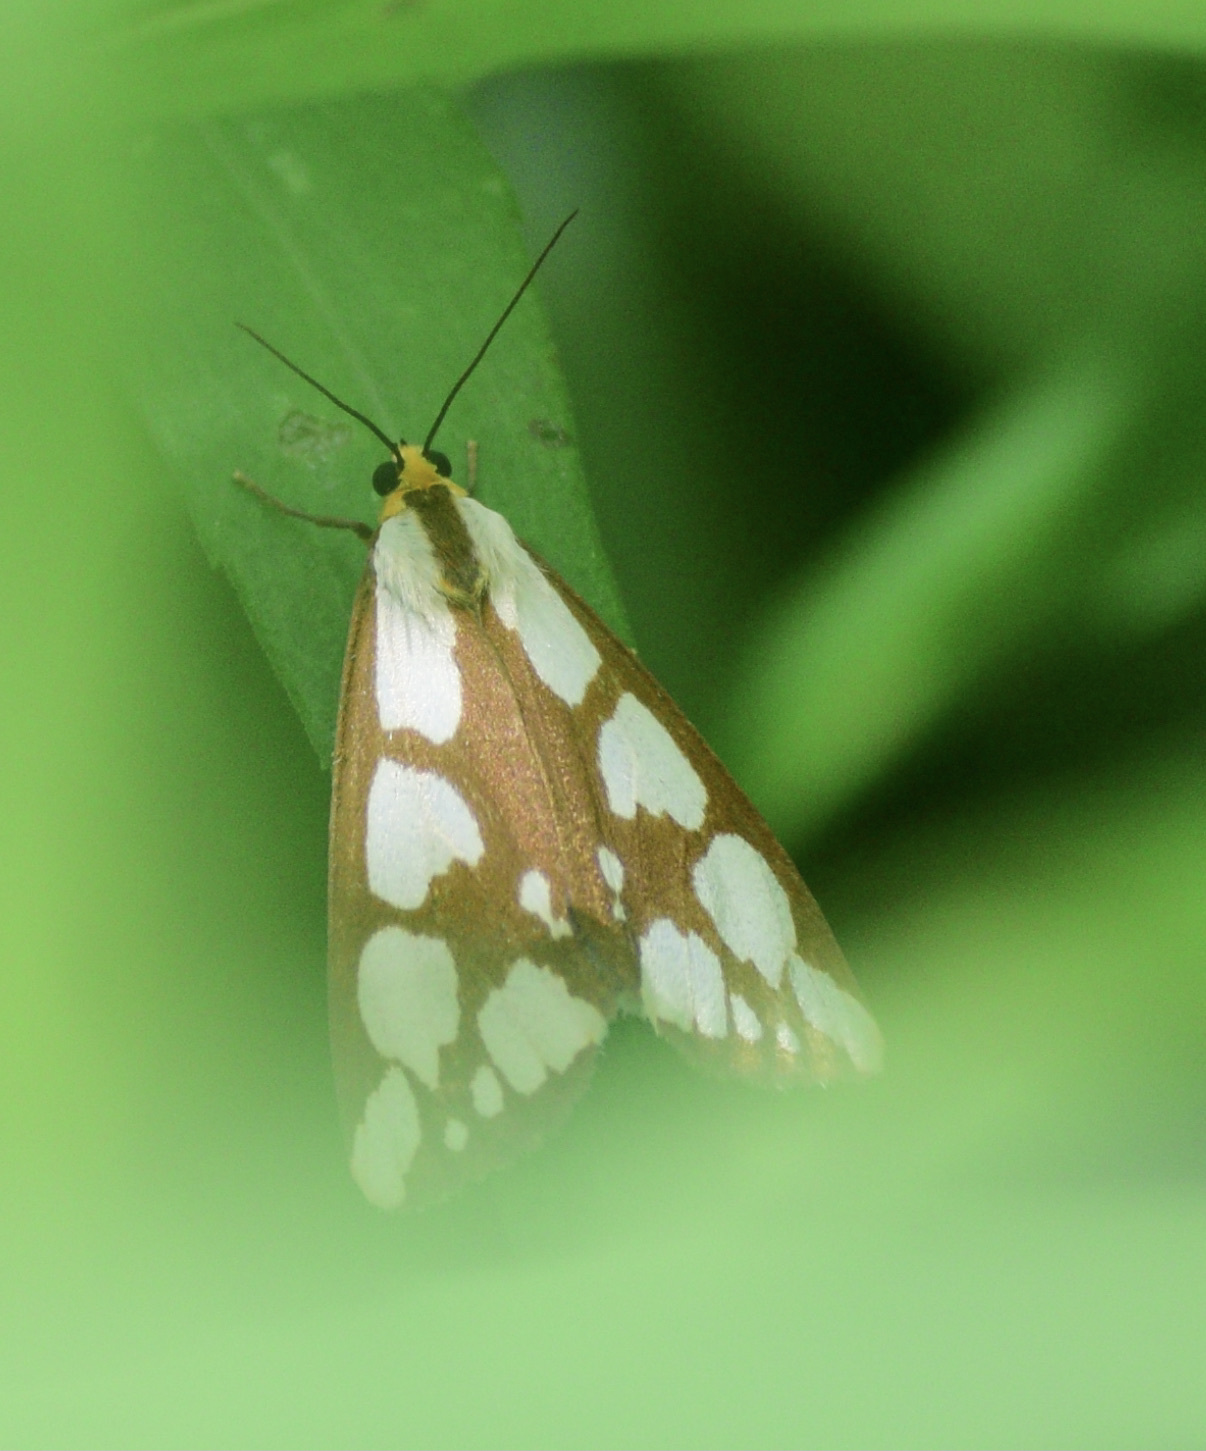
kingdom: Animalia
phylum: Arthropoda
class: Insecta
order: Lepidoptera
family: Erebidae
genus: Haploa
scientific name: Haploa confusa
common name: Confused haploa moth
